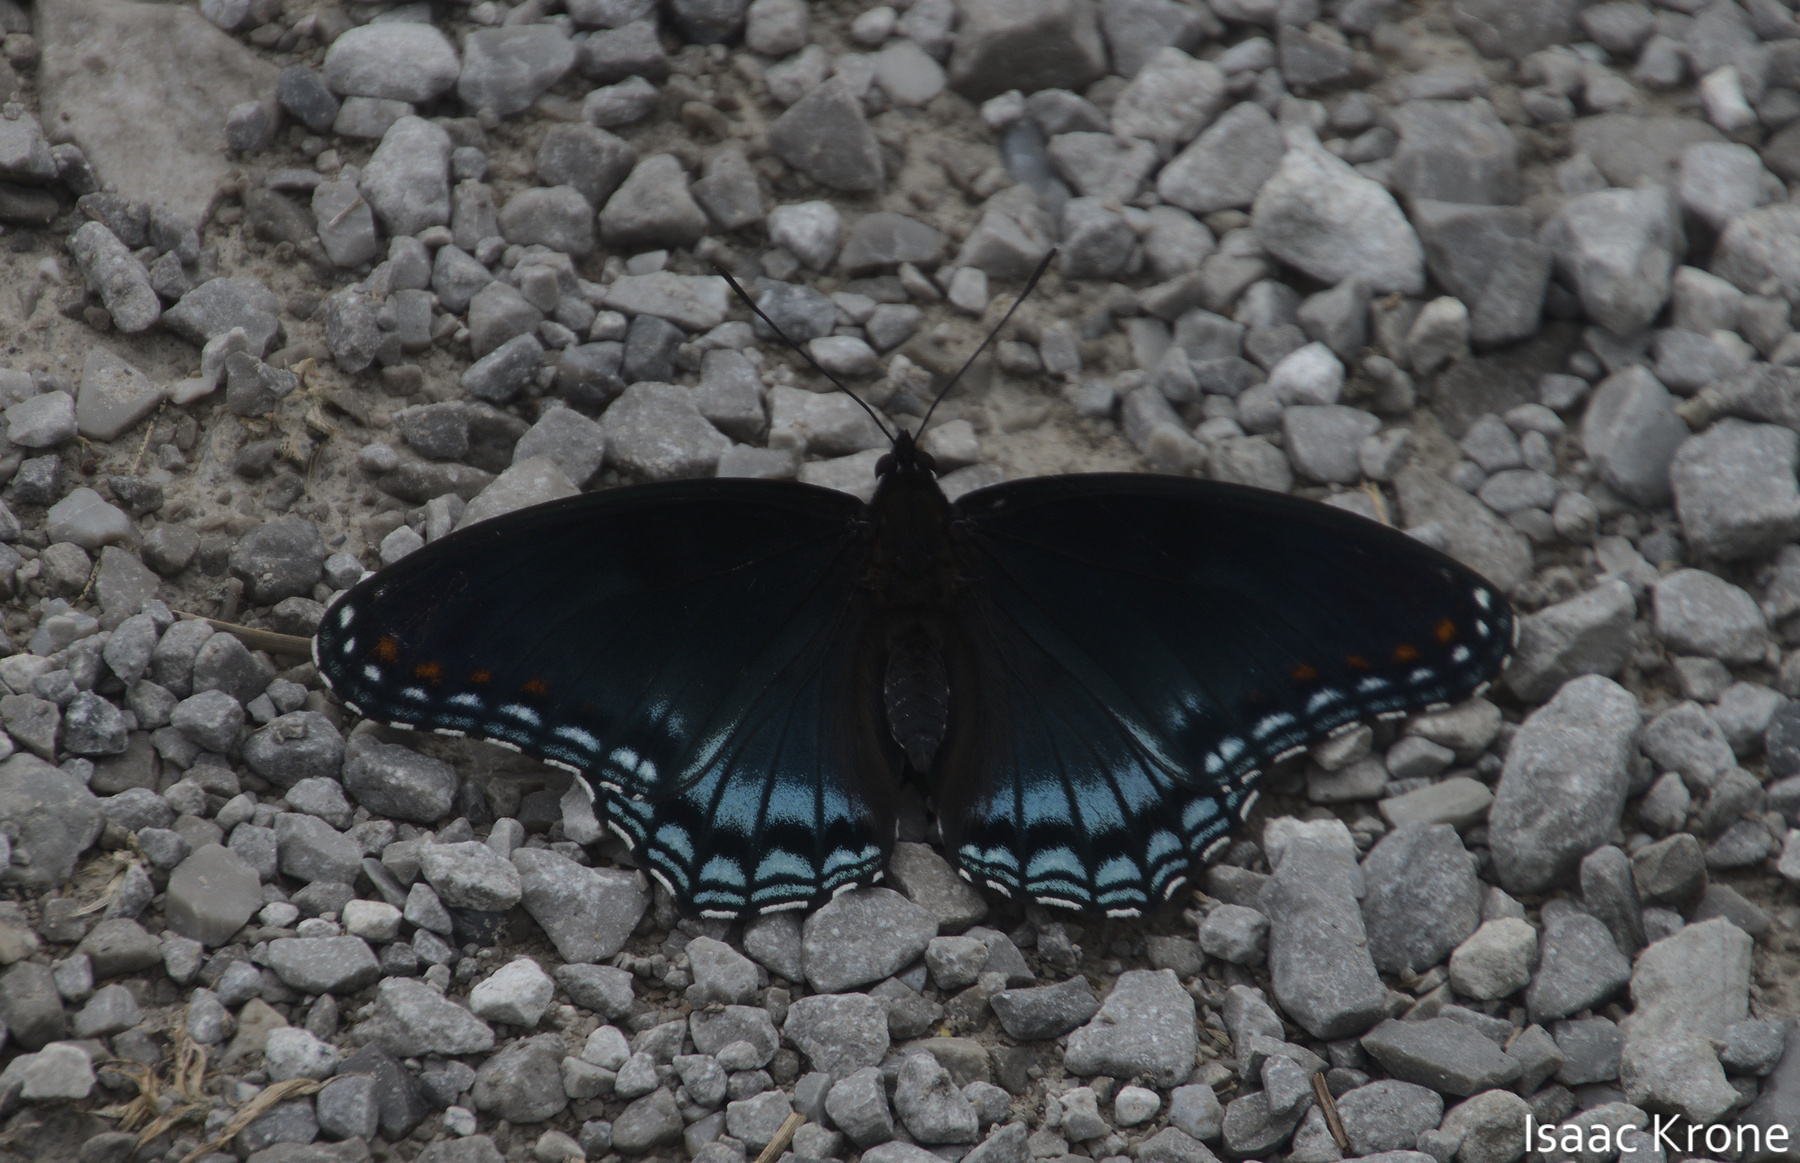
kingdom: Animalia
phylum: Arthropoda
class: Insecta
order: Lepidoptera
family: Nymphalidae
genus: Limenitis
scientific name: Limenitis astyanax
